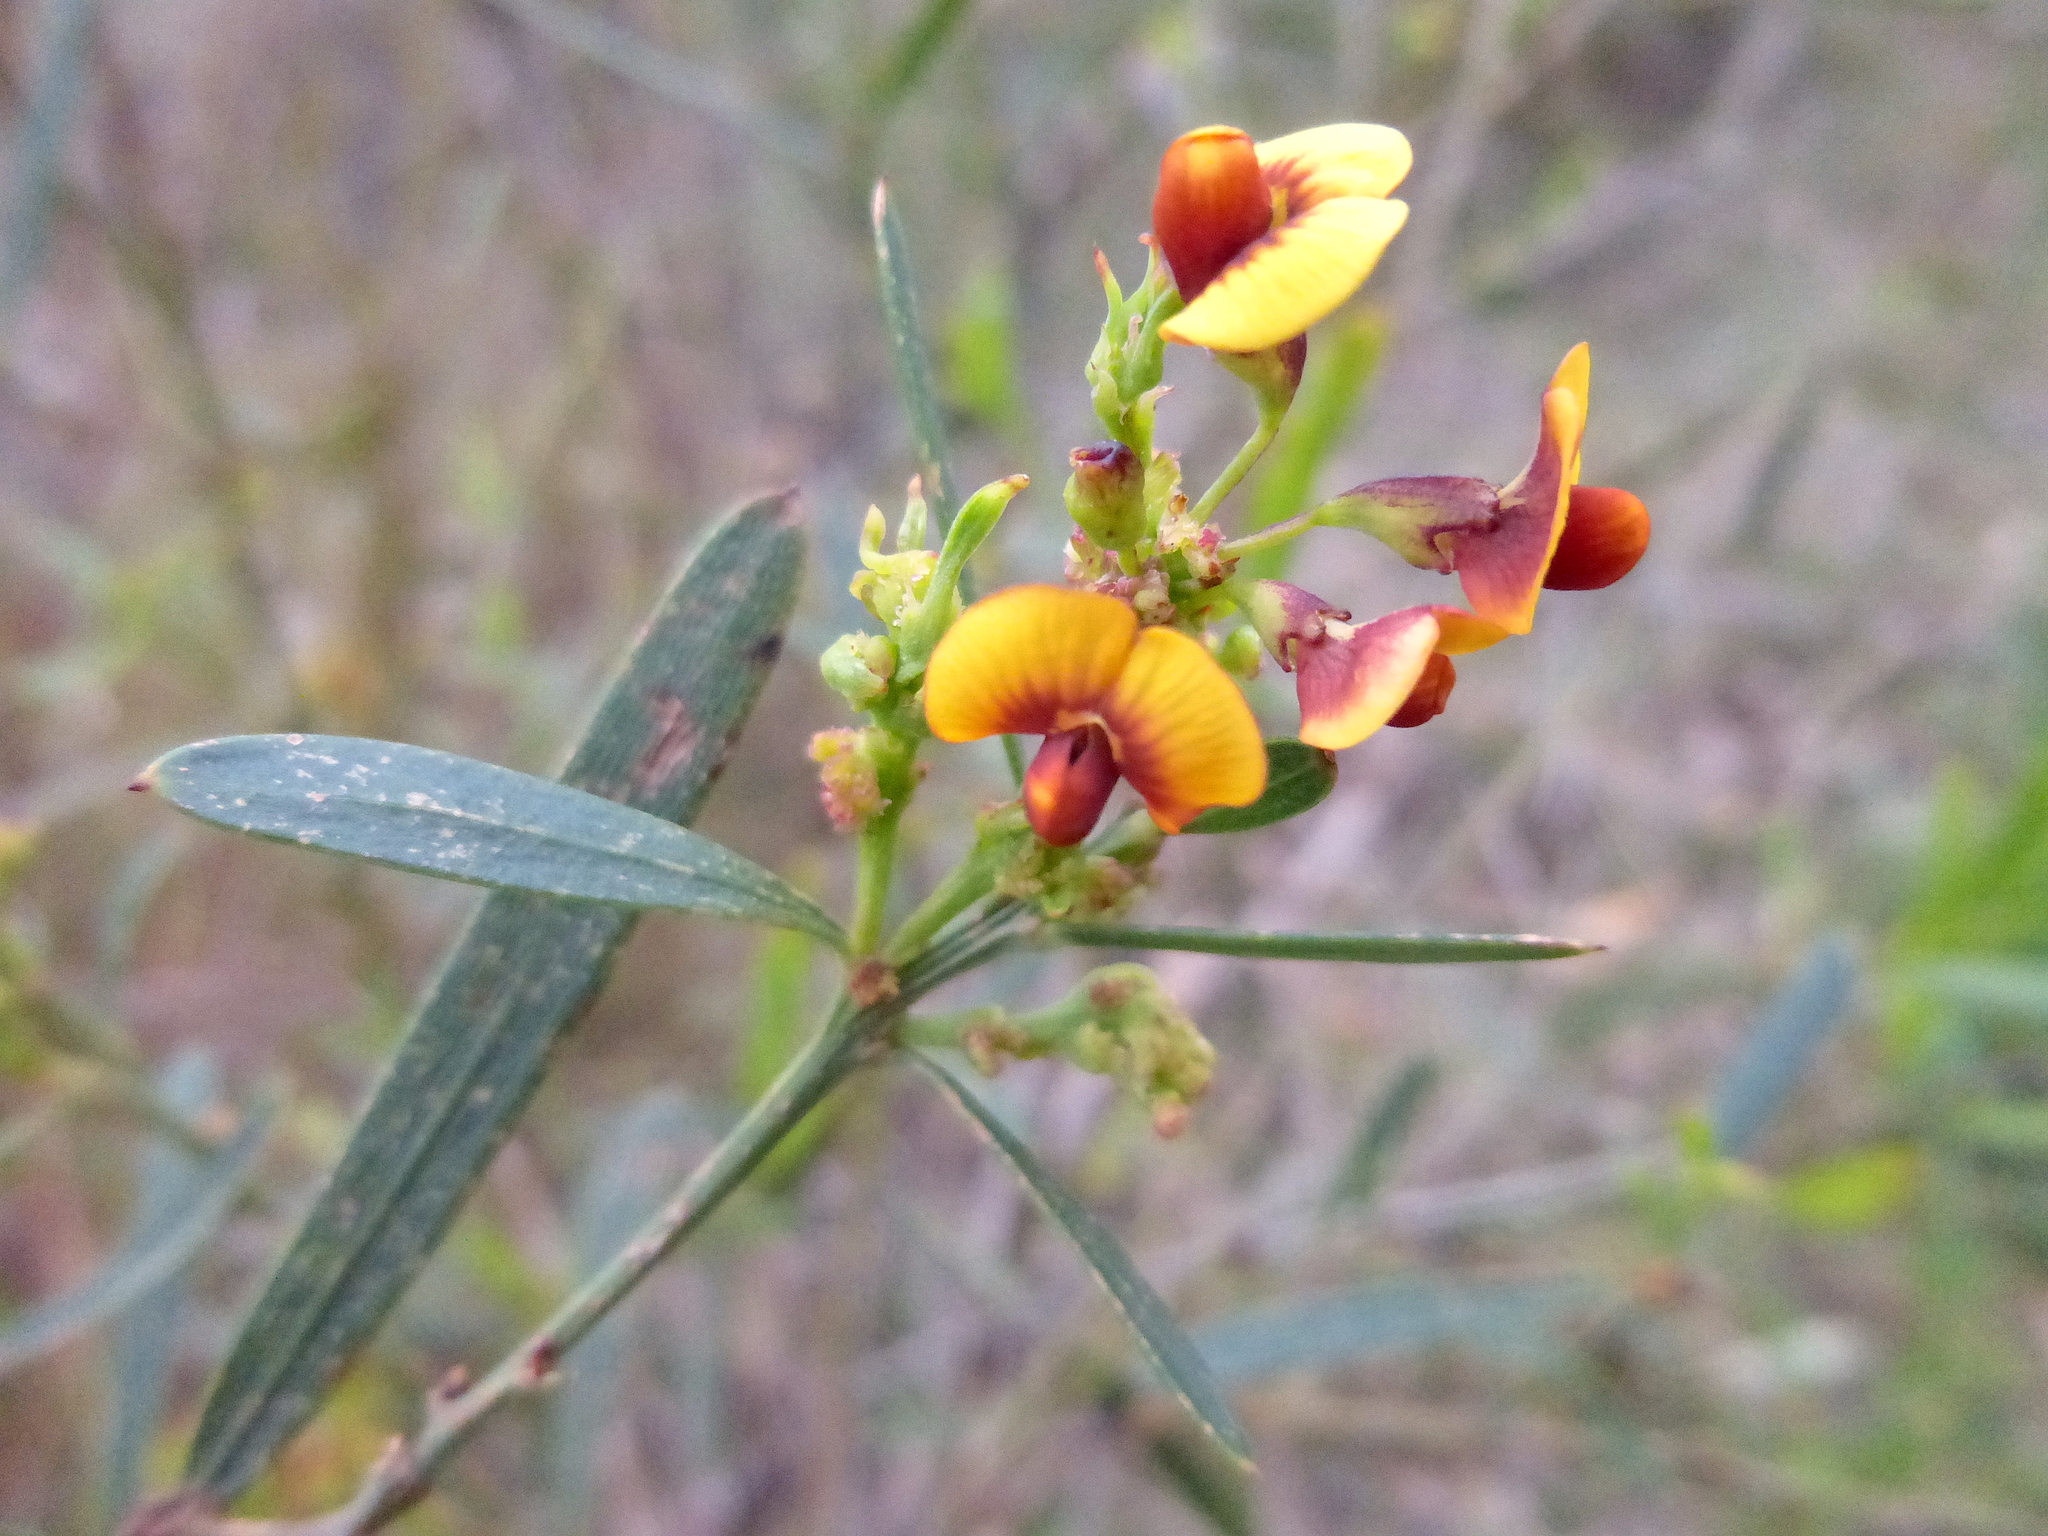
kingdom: Plantae
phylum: Tracheophyta
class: Magnoliopsida
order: Fabales
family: Fabaceae
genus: Daviesia
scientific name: Daviesia leptophylla
